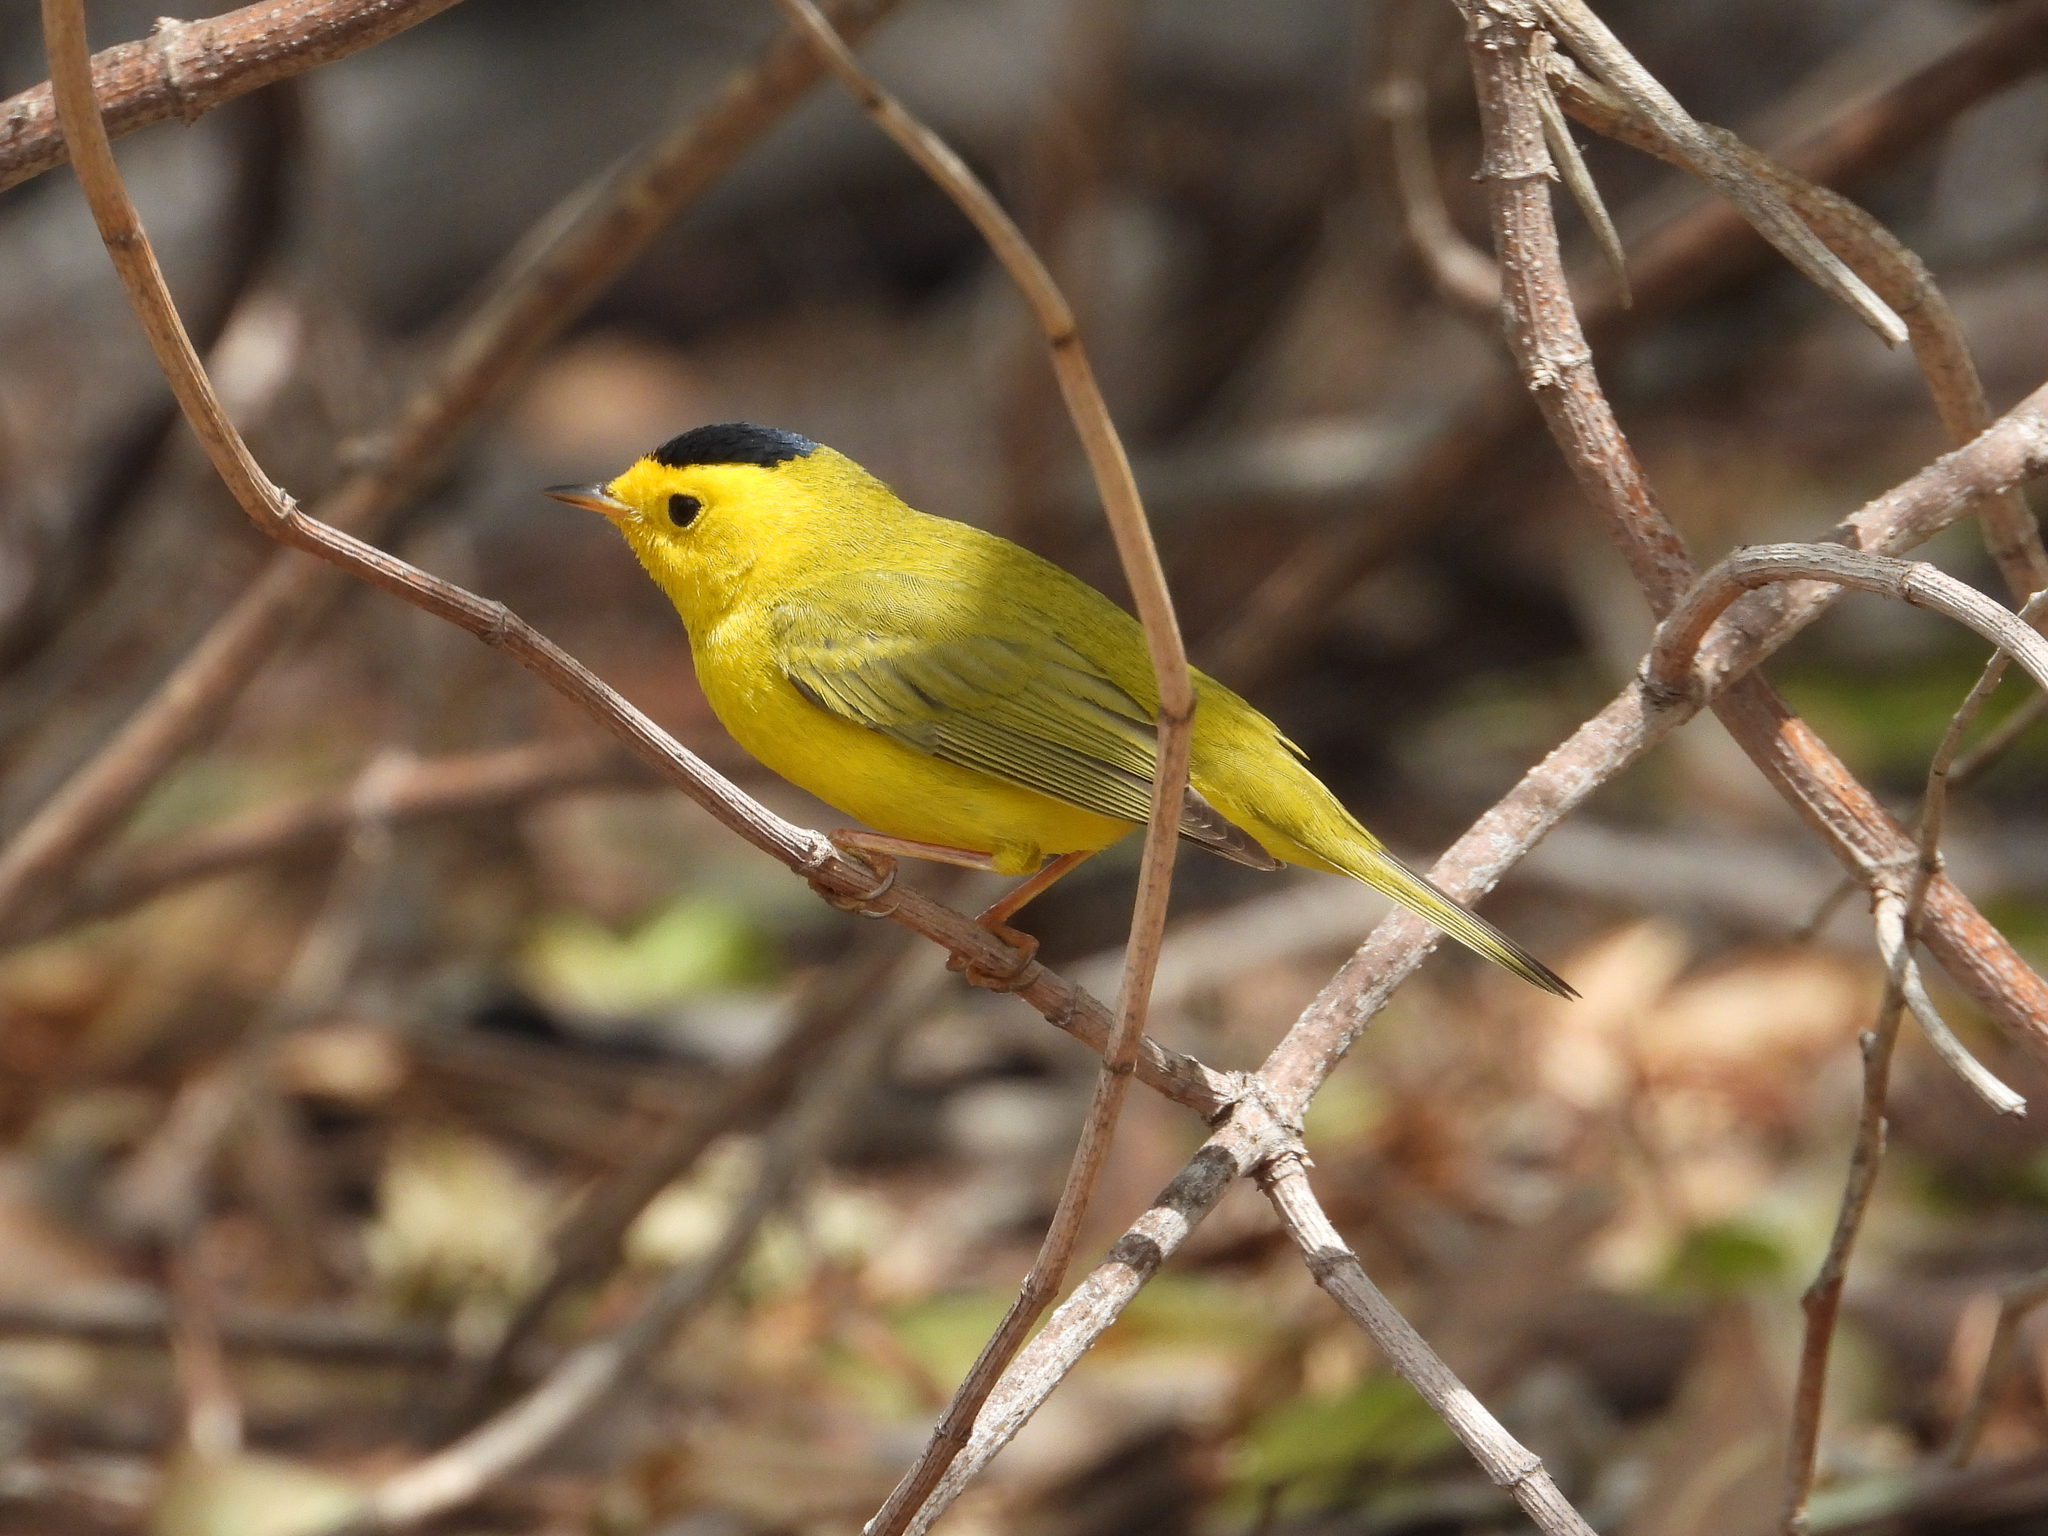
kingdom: Animalia
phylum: Chordata
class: Aves
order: Passeriformes
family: Parulidae
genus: Cardellina
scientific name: Cardellina pusilla
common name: Wilson's warbler
